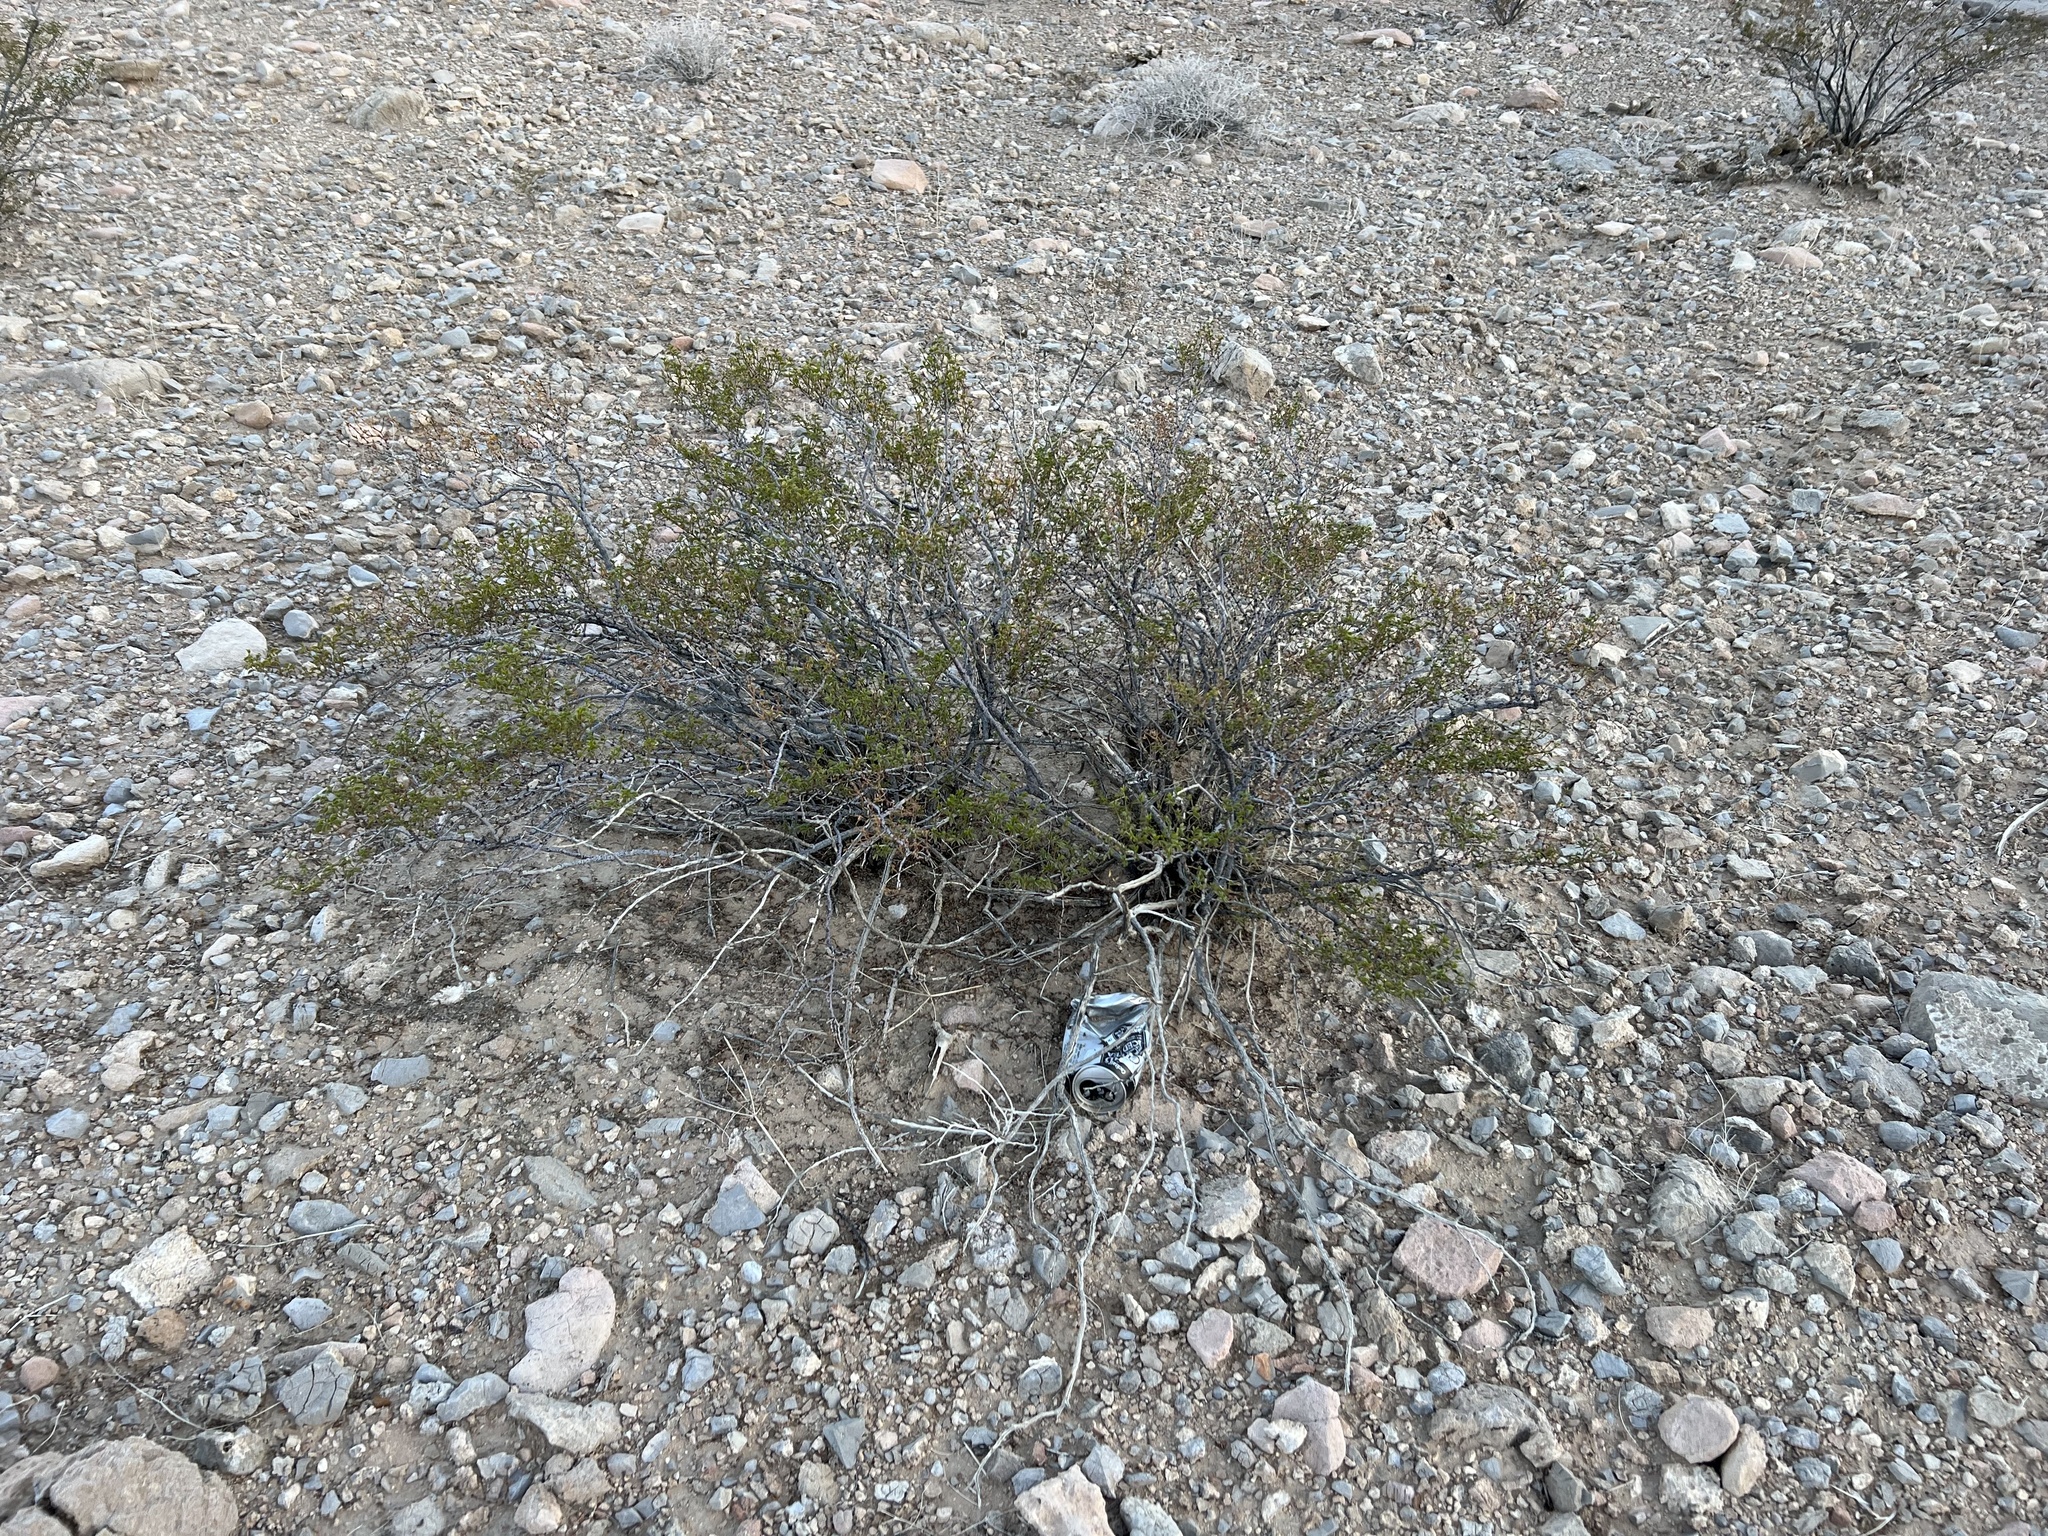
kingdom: Plantae
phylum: Tracheophyta
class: Magnoliopsida
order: Zygophyllales
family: Zygophyllaceae
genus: Larrea
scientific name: Larrea tridentata
